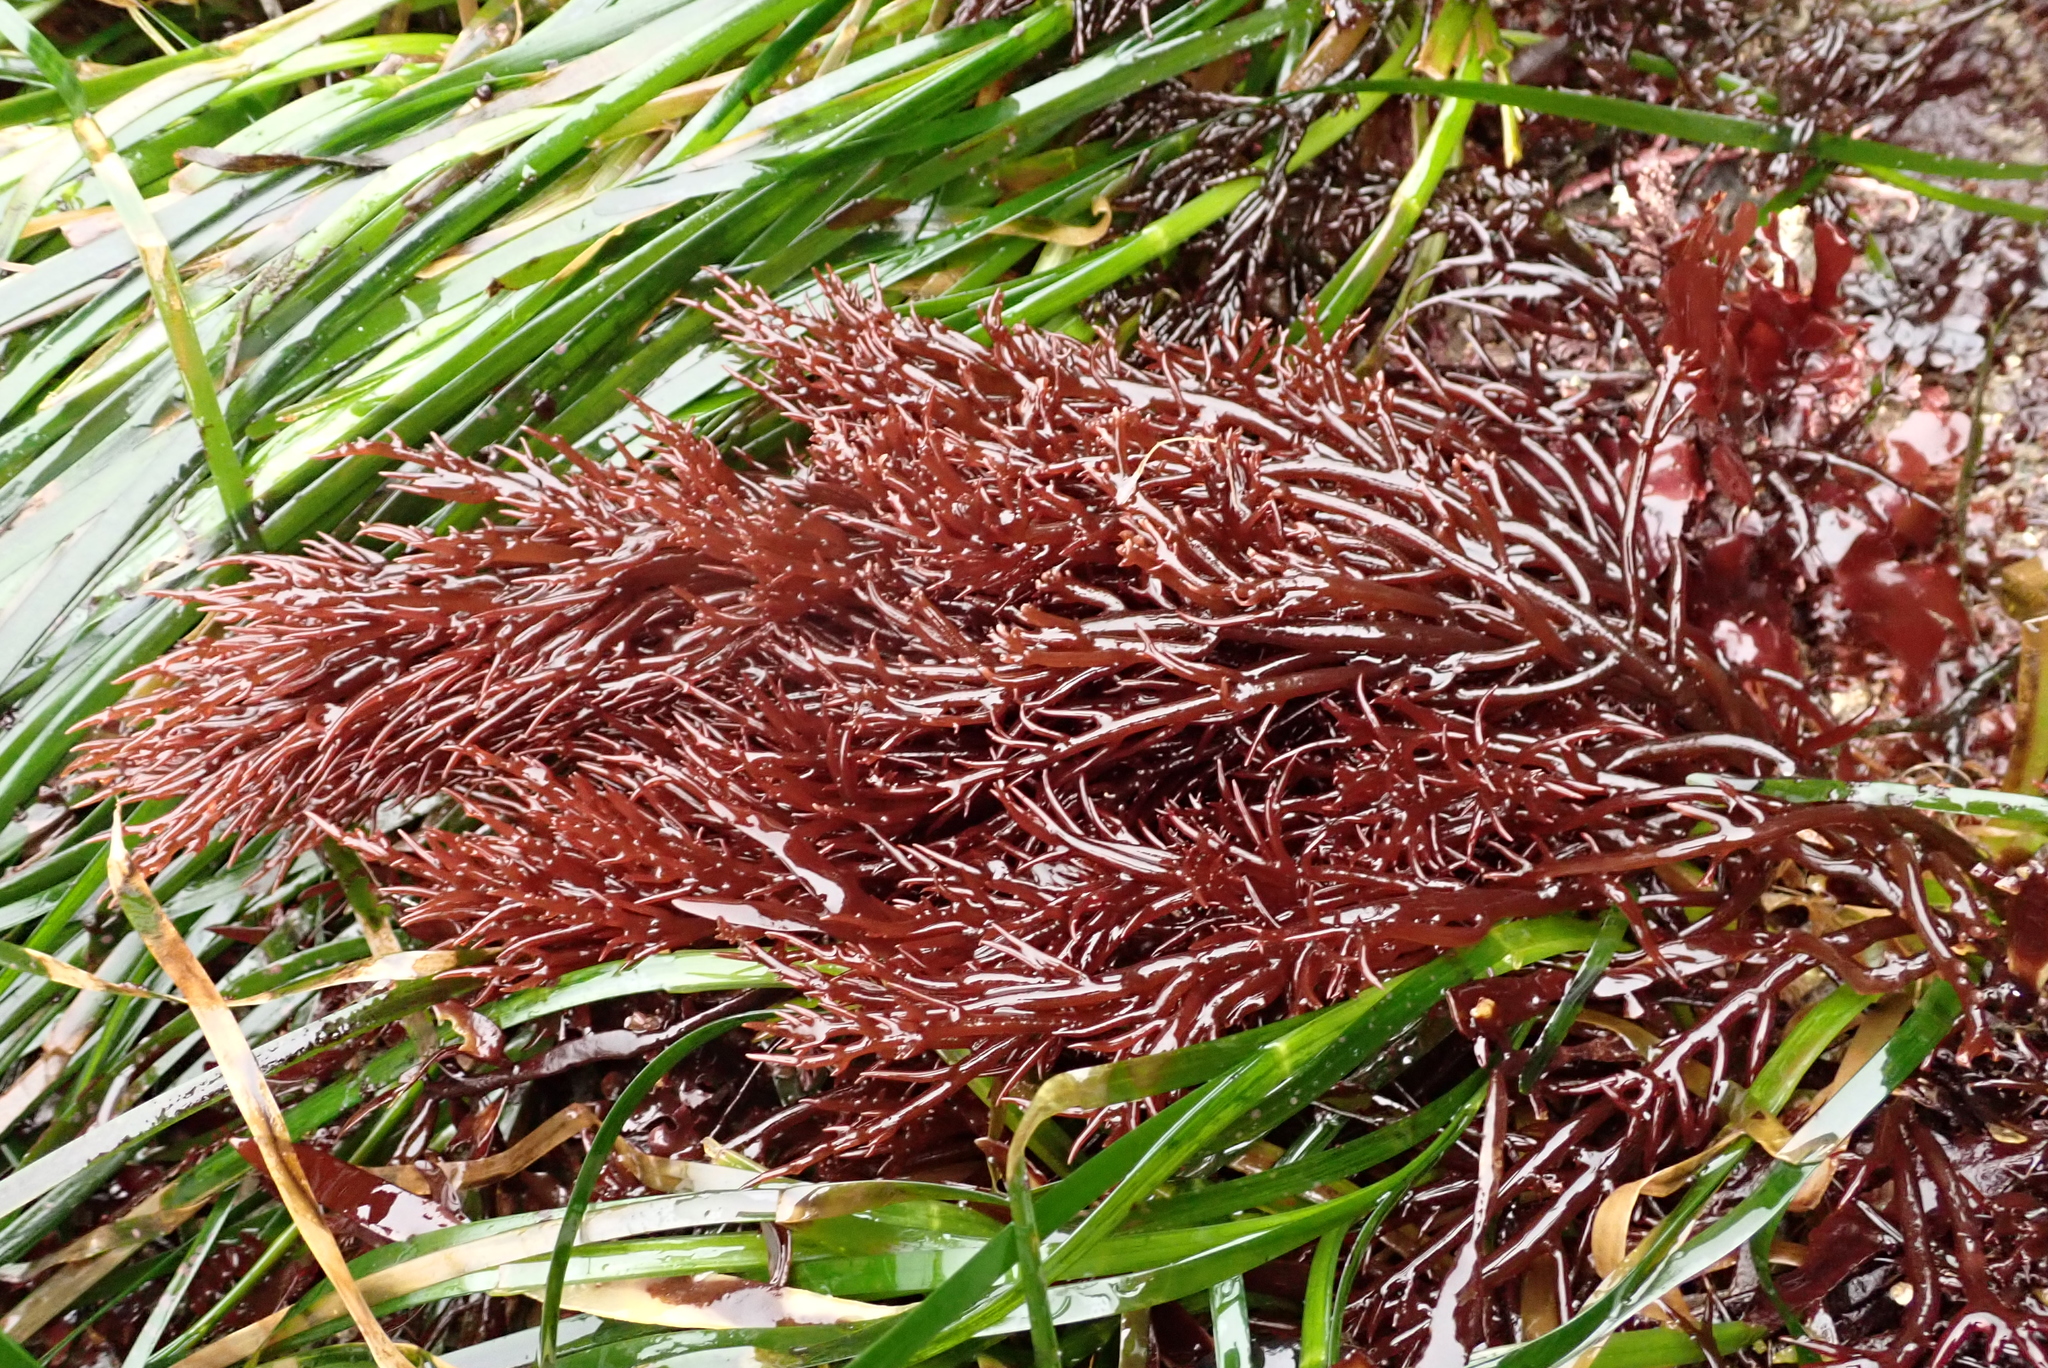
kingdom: Plantae
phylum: Rhodophyta
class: Florideophyceae
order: Gigartinales
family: Solieriaceae
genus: Sarcodiotheca
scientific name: Sarcodiotheca gaudichaudii
